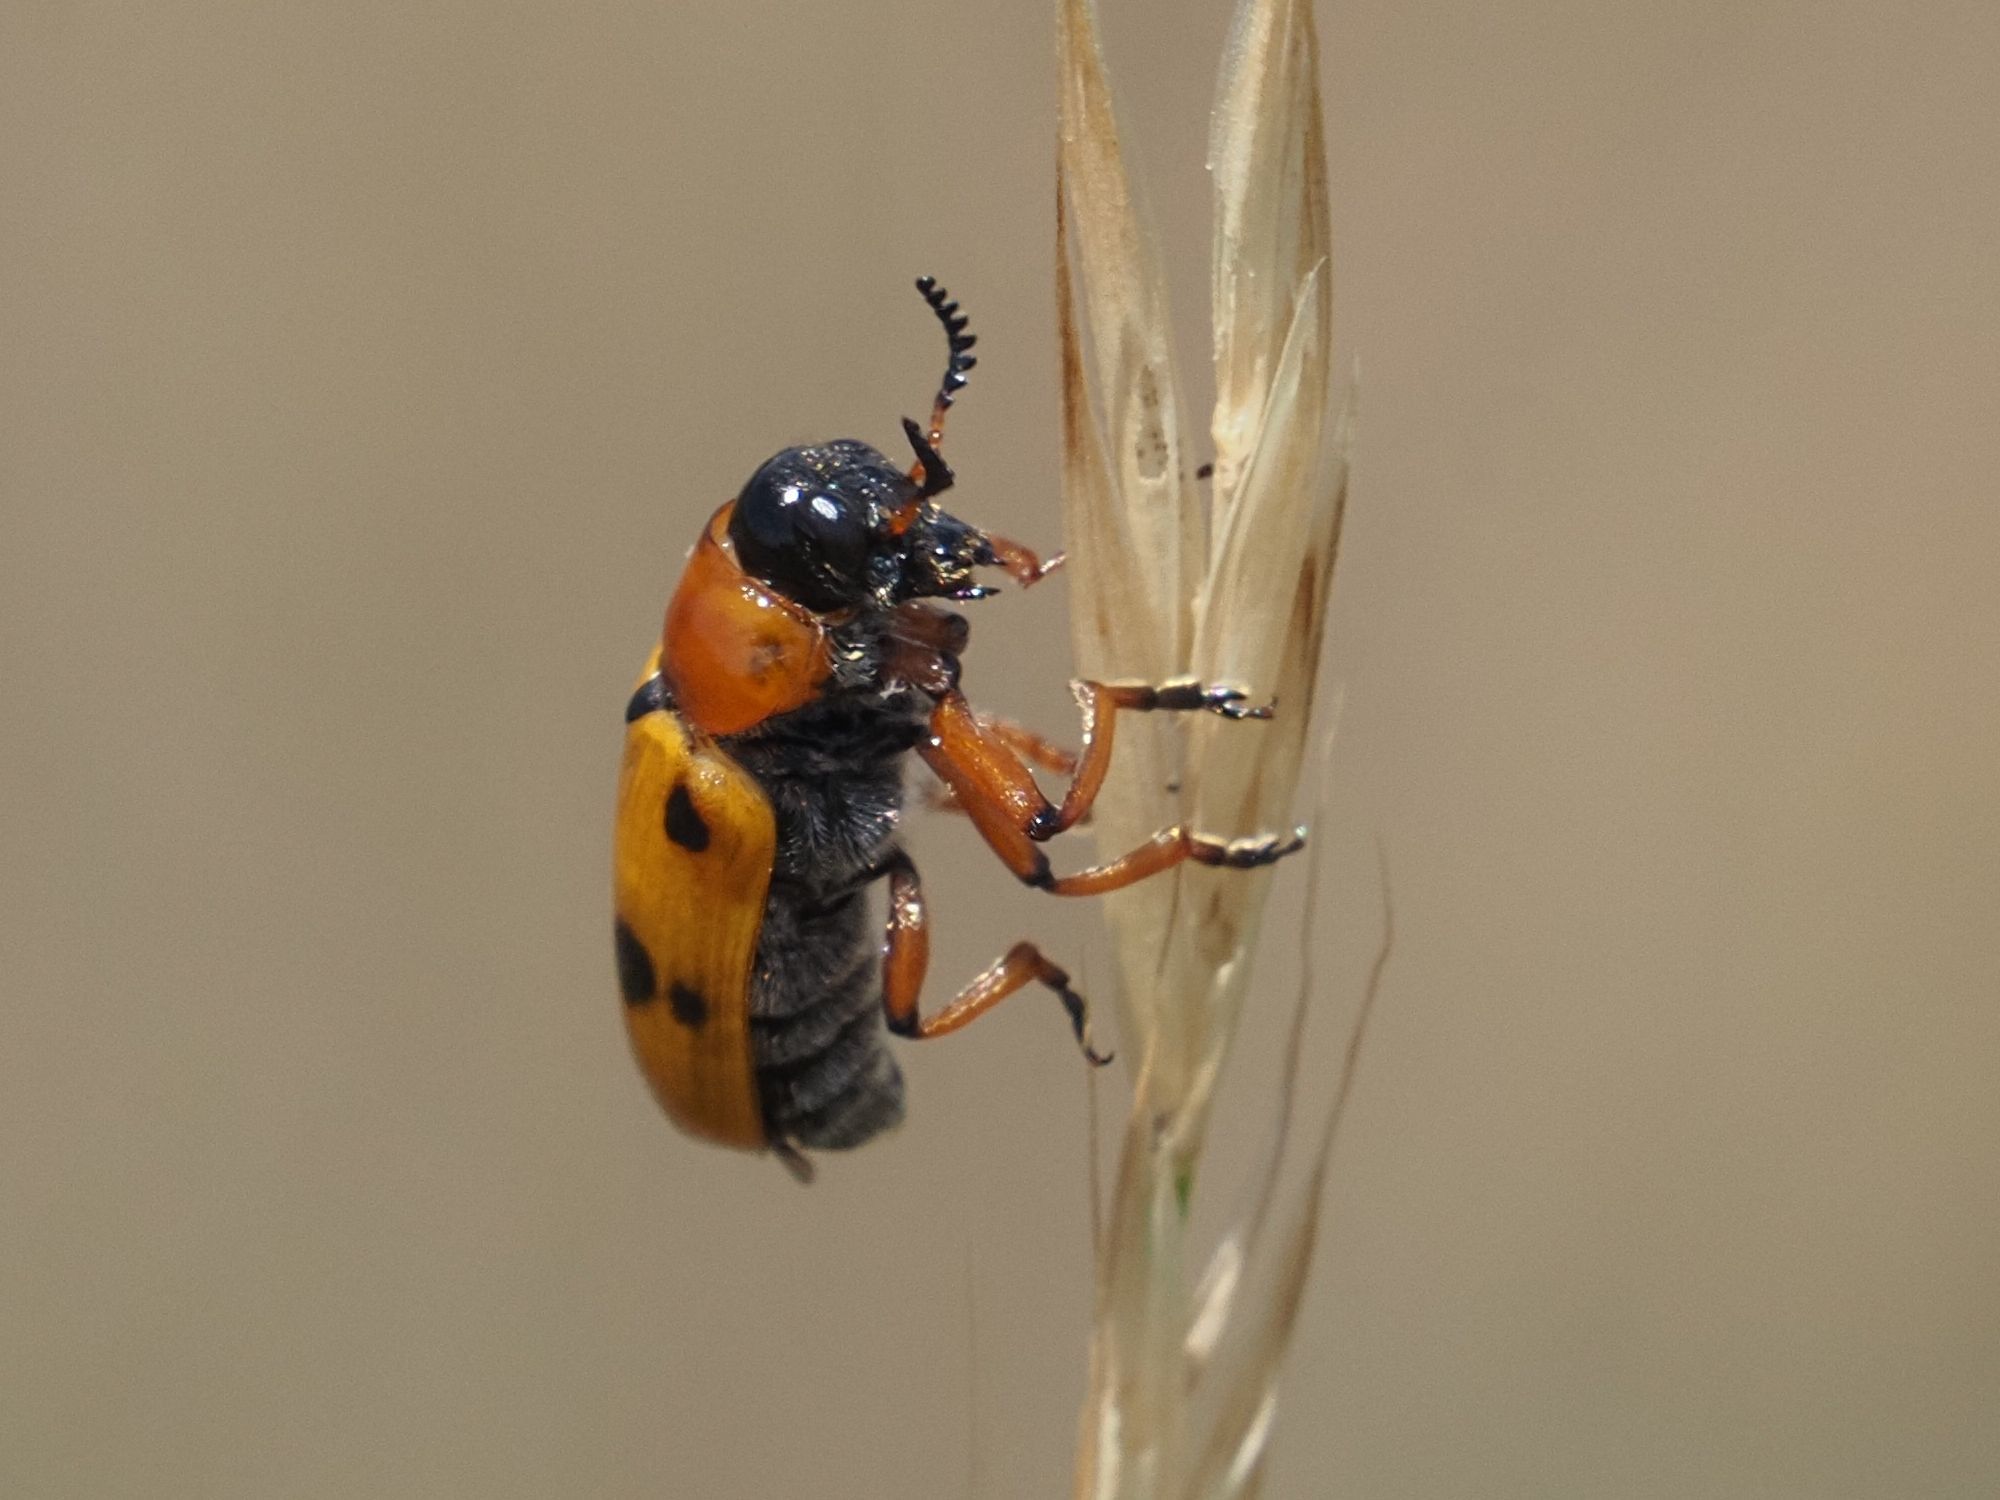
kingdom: Animalia
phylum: Arthropoda
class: Insecta
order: Coleoptera
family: Chrysomelidae
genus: Tituboea
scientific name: Tituboea macropus
